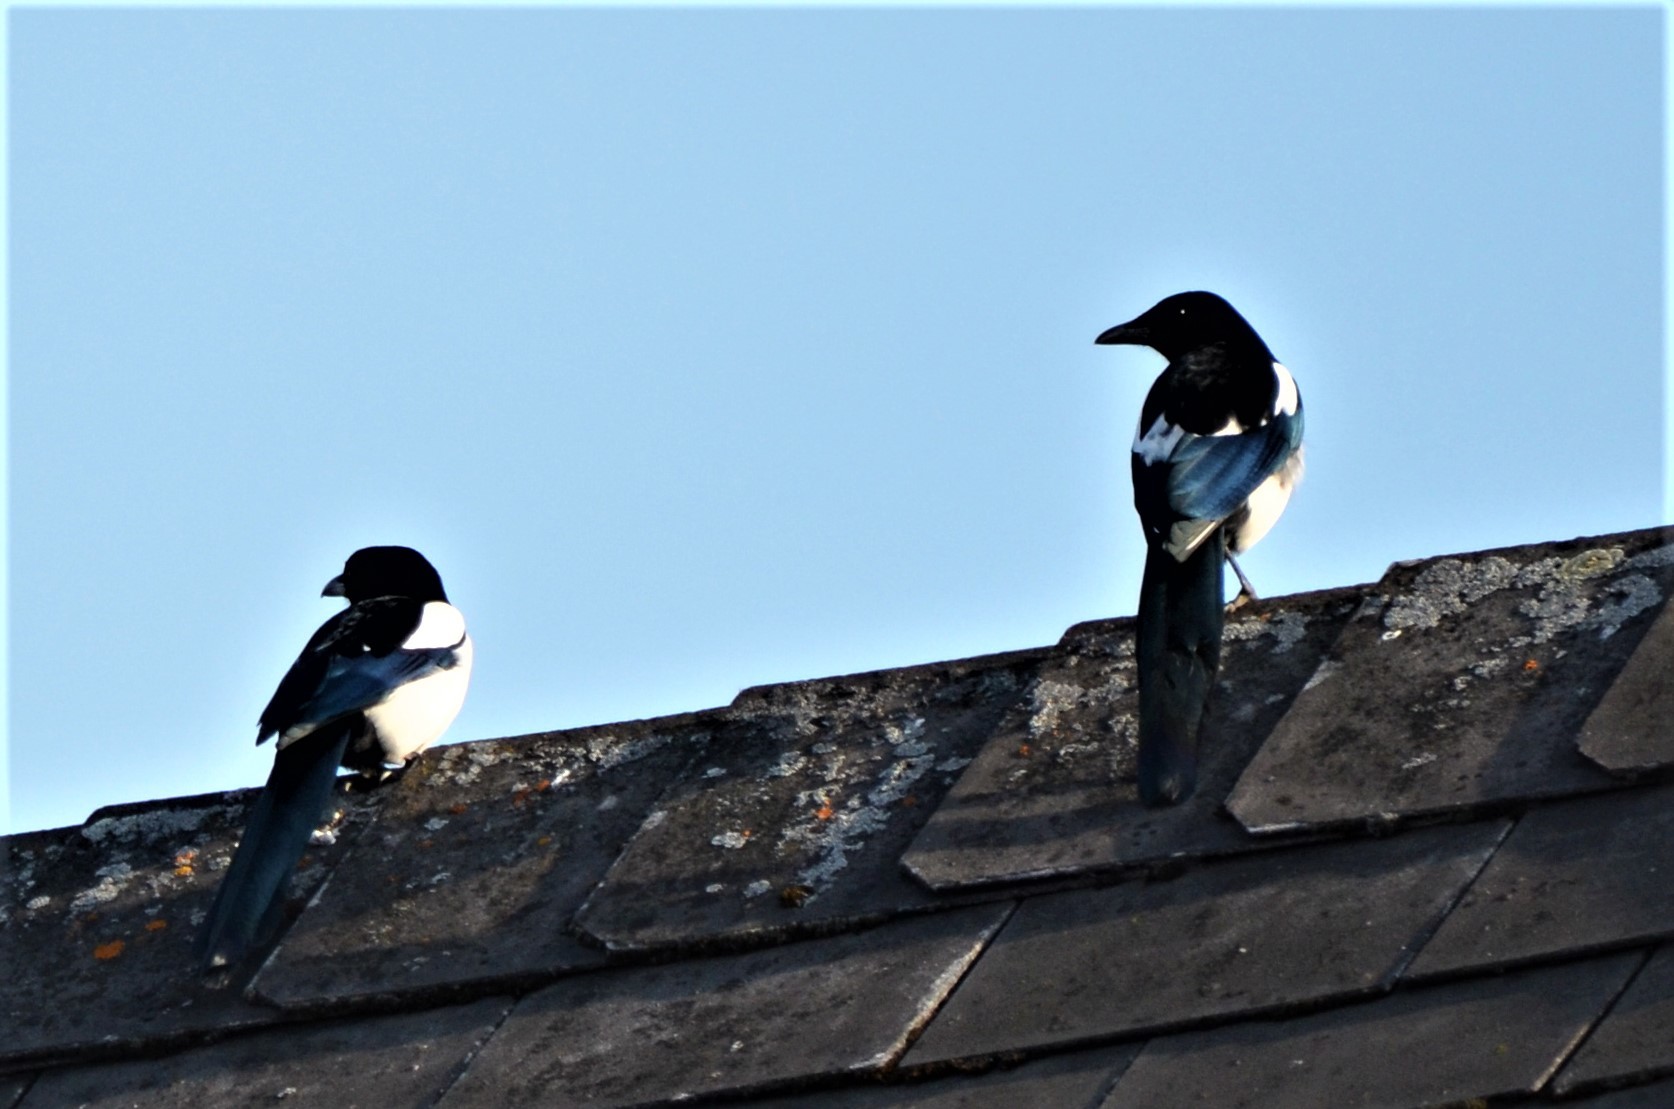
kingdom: Animalia
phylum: Chordata
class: Aves
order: Passeriformes
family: Corvidae
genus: Pica
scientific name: Pica pica
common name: Eurasian magpie
